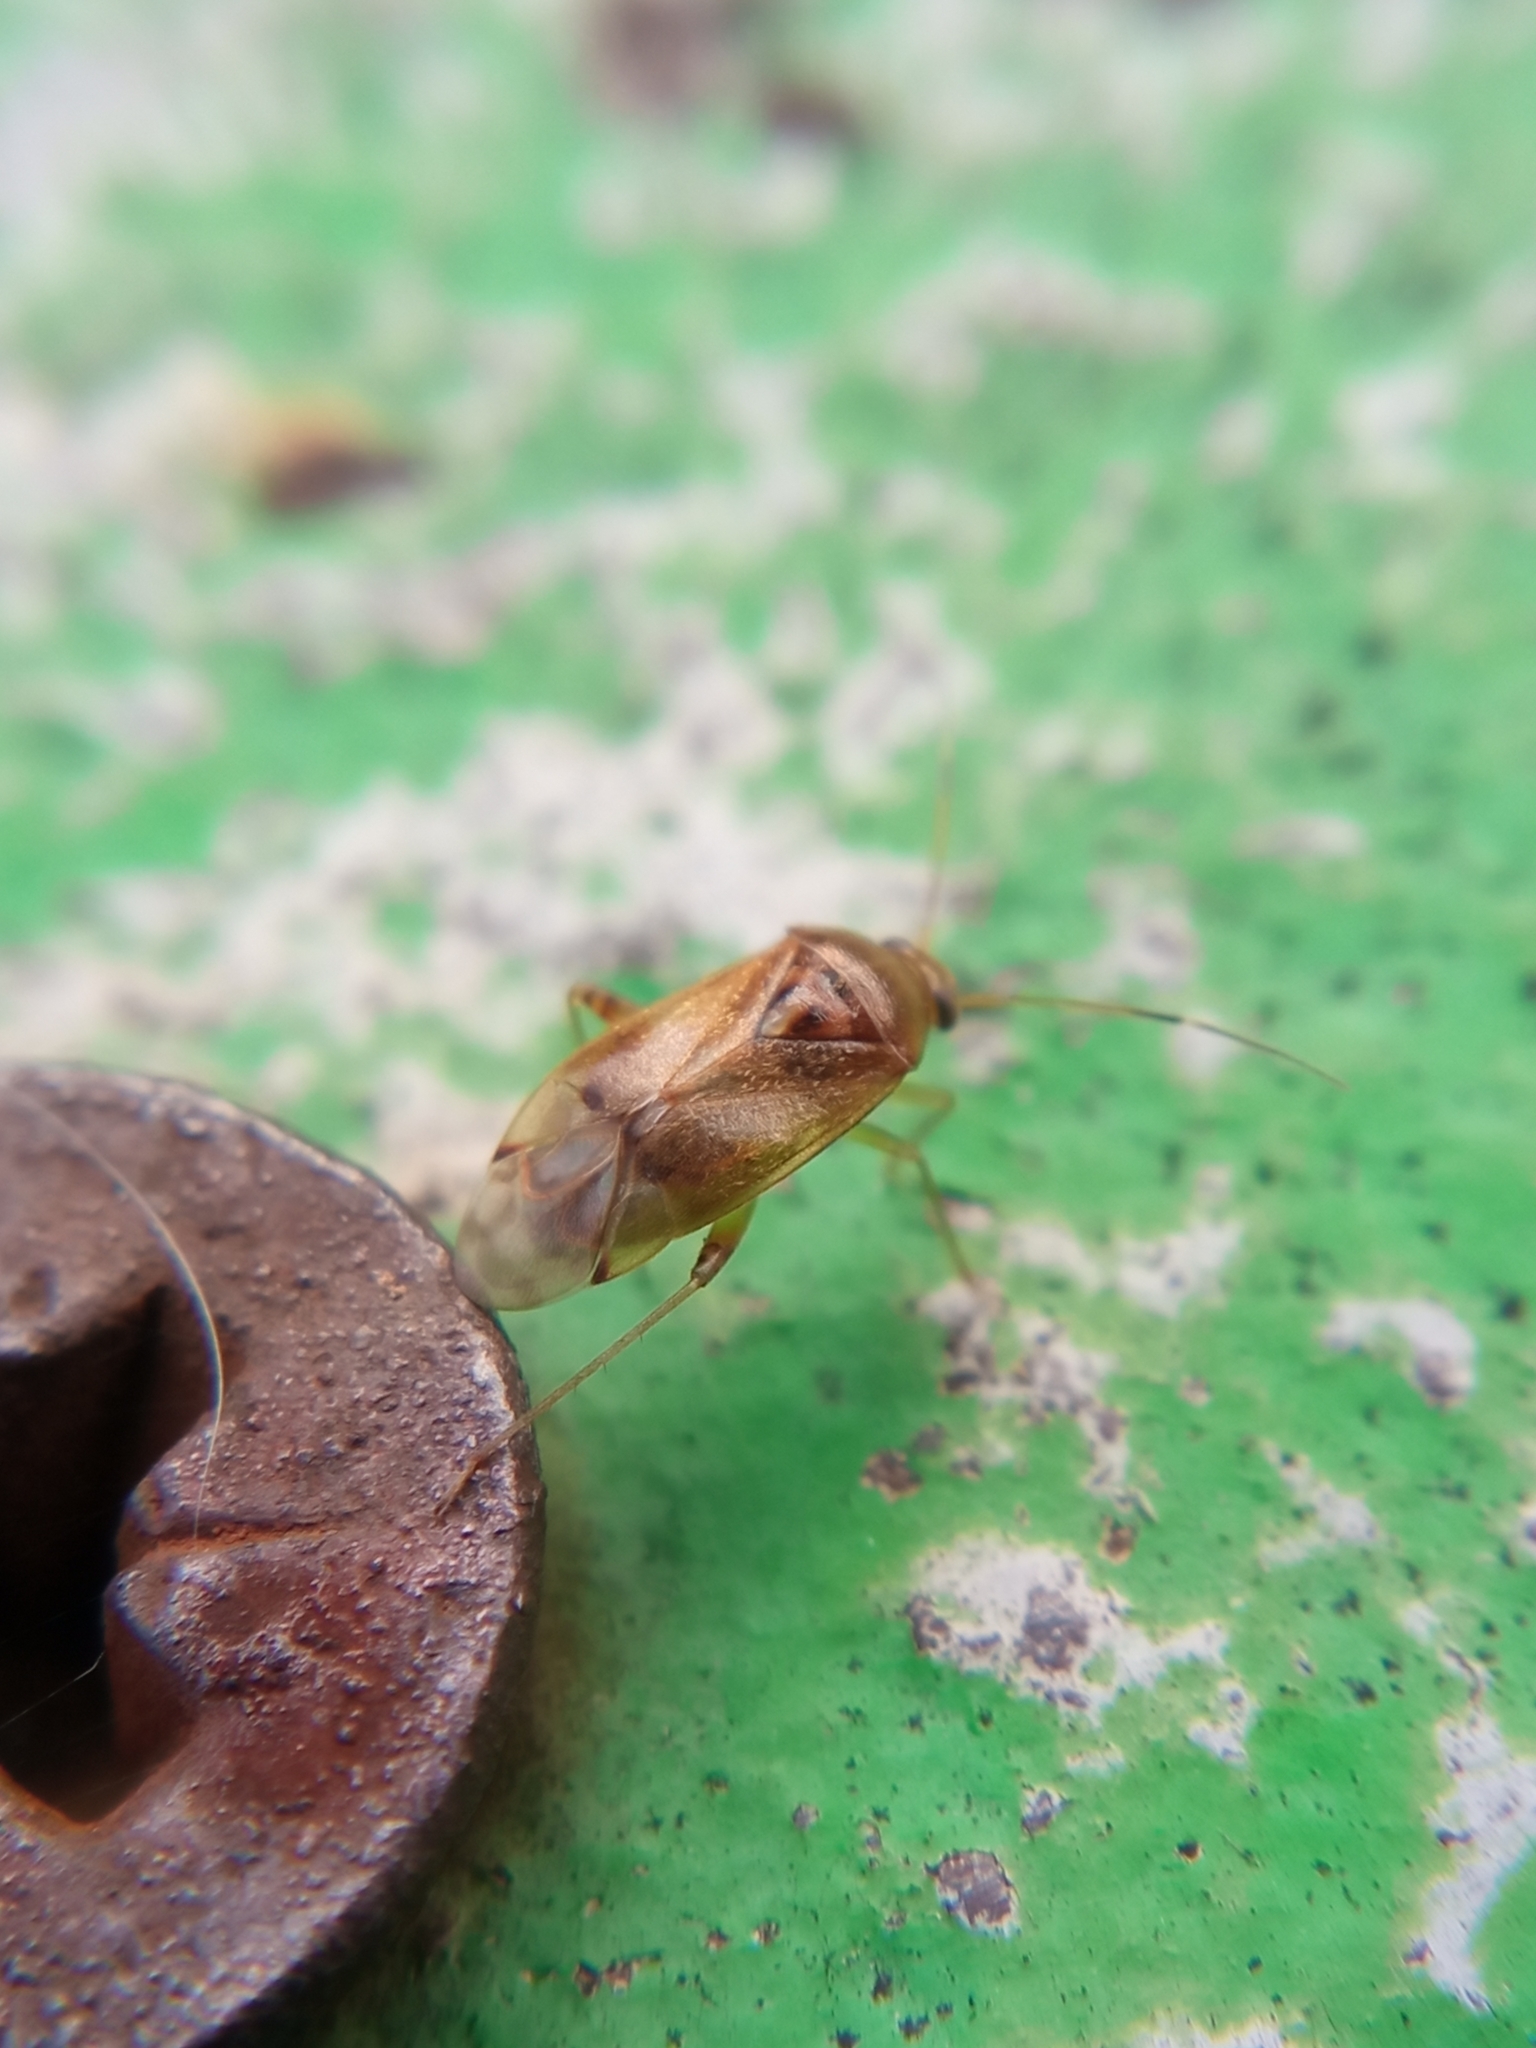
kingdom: Animalia
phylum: Arthropoda
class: Insecta
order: Hemiptera
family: Miridae
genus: Pinalitus
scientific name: Pinalitus cervinus
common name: Plant bug
